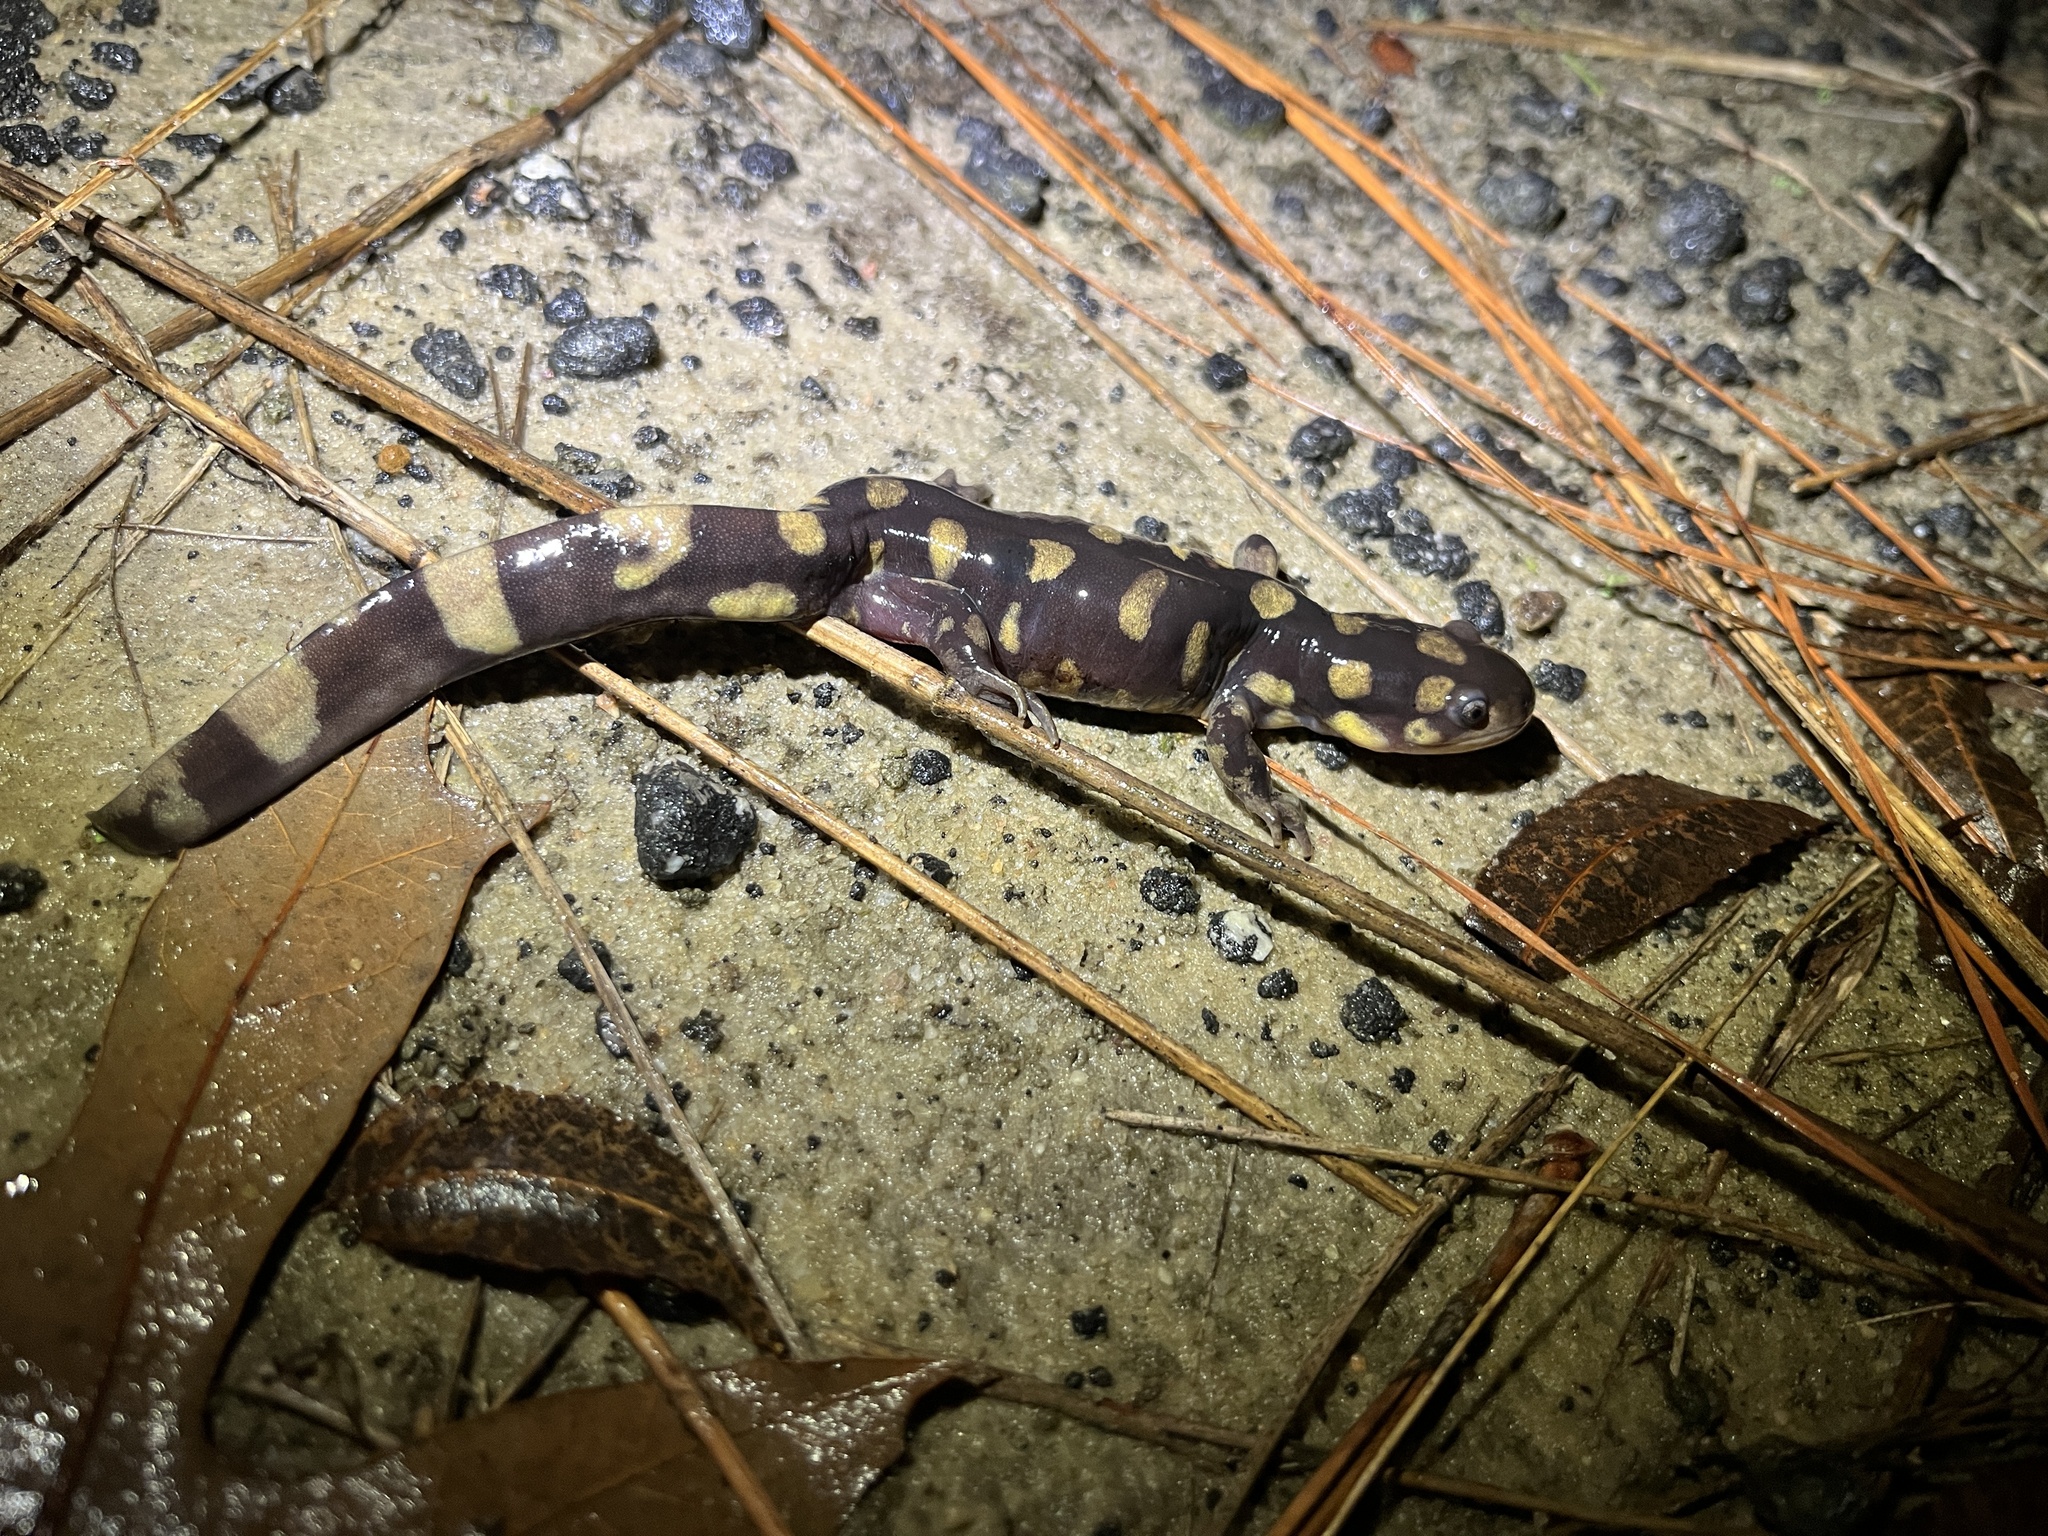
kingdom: Animalia
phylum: Chordata
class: Amphibia
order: Caudata
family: Ambystomatidae
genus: Ambystoma
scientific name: Ambystoma tigrinum
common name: Tiger salamander
